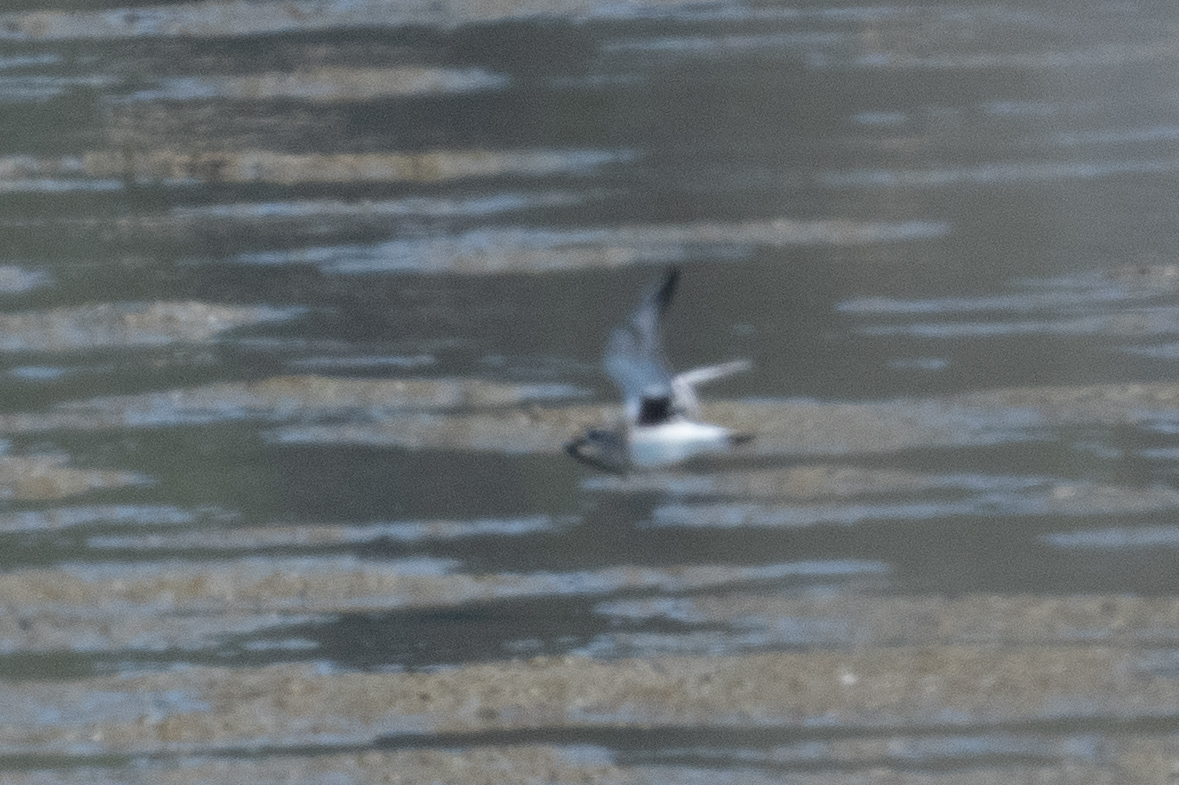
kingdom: Animalia
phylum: Chordata
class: Aves
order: Charadriiformes
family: Charadriidae
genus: Pluvialis
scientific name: Pluvialis squatarola
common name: Grey plover
